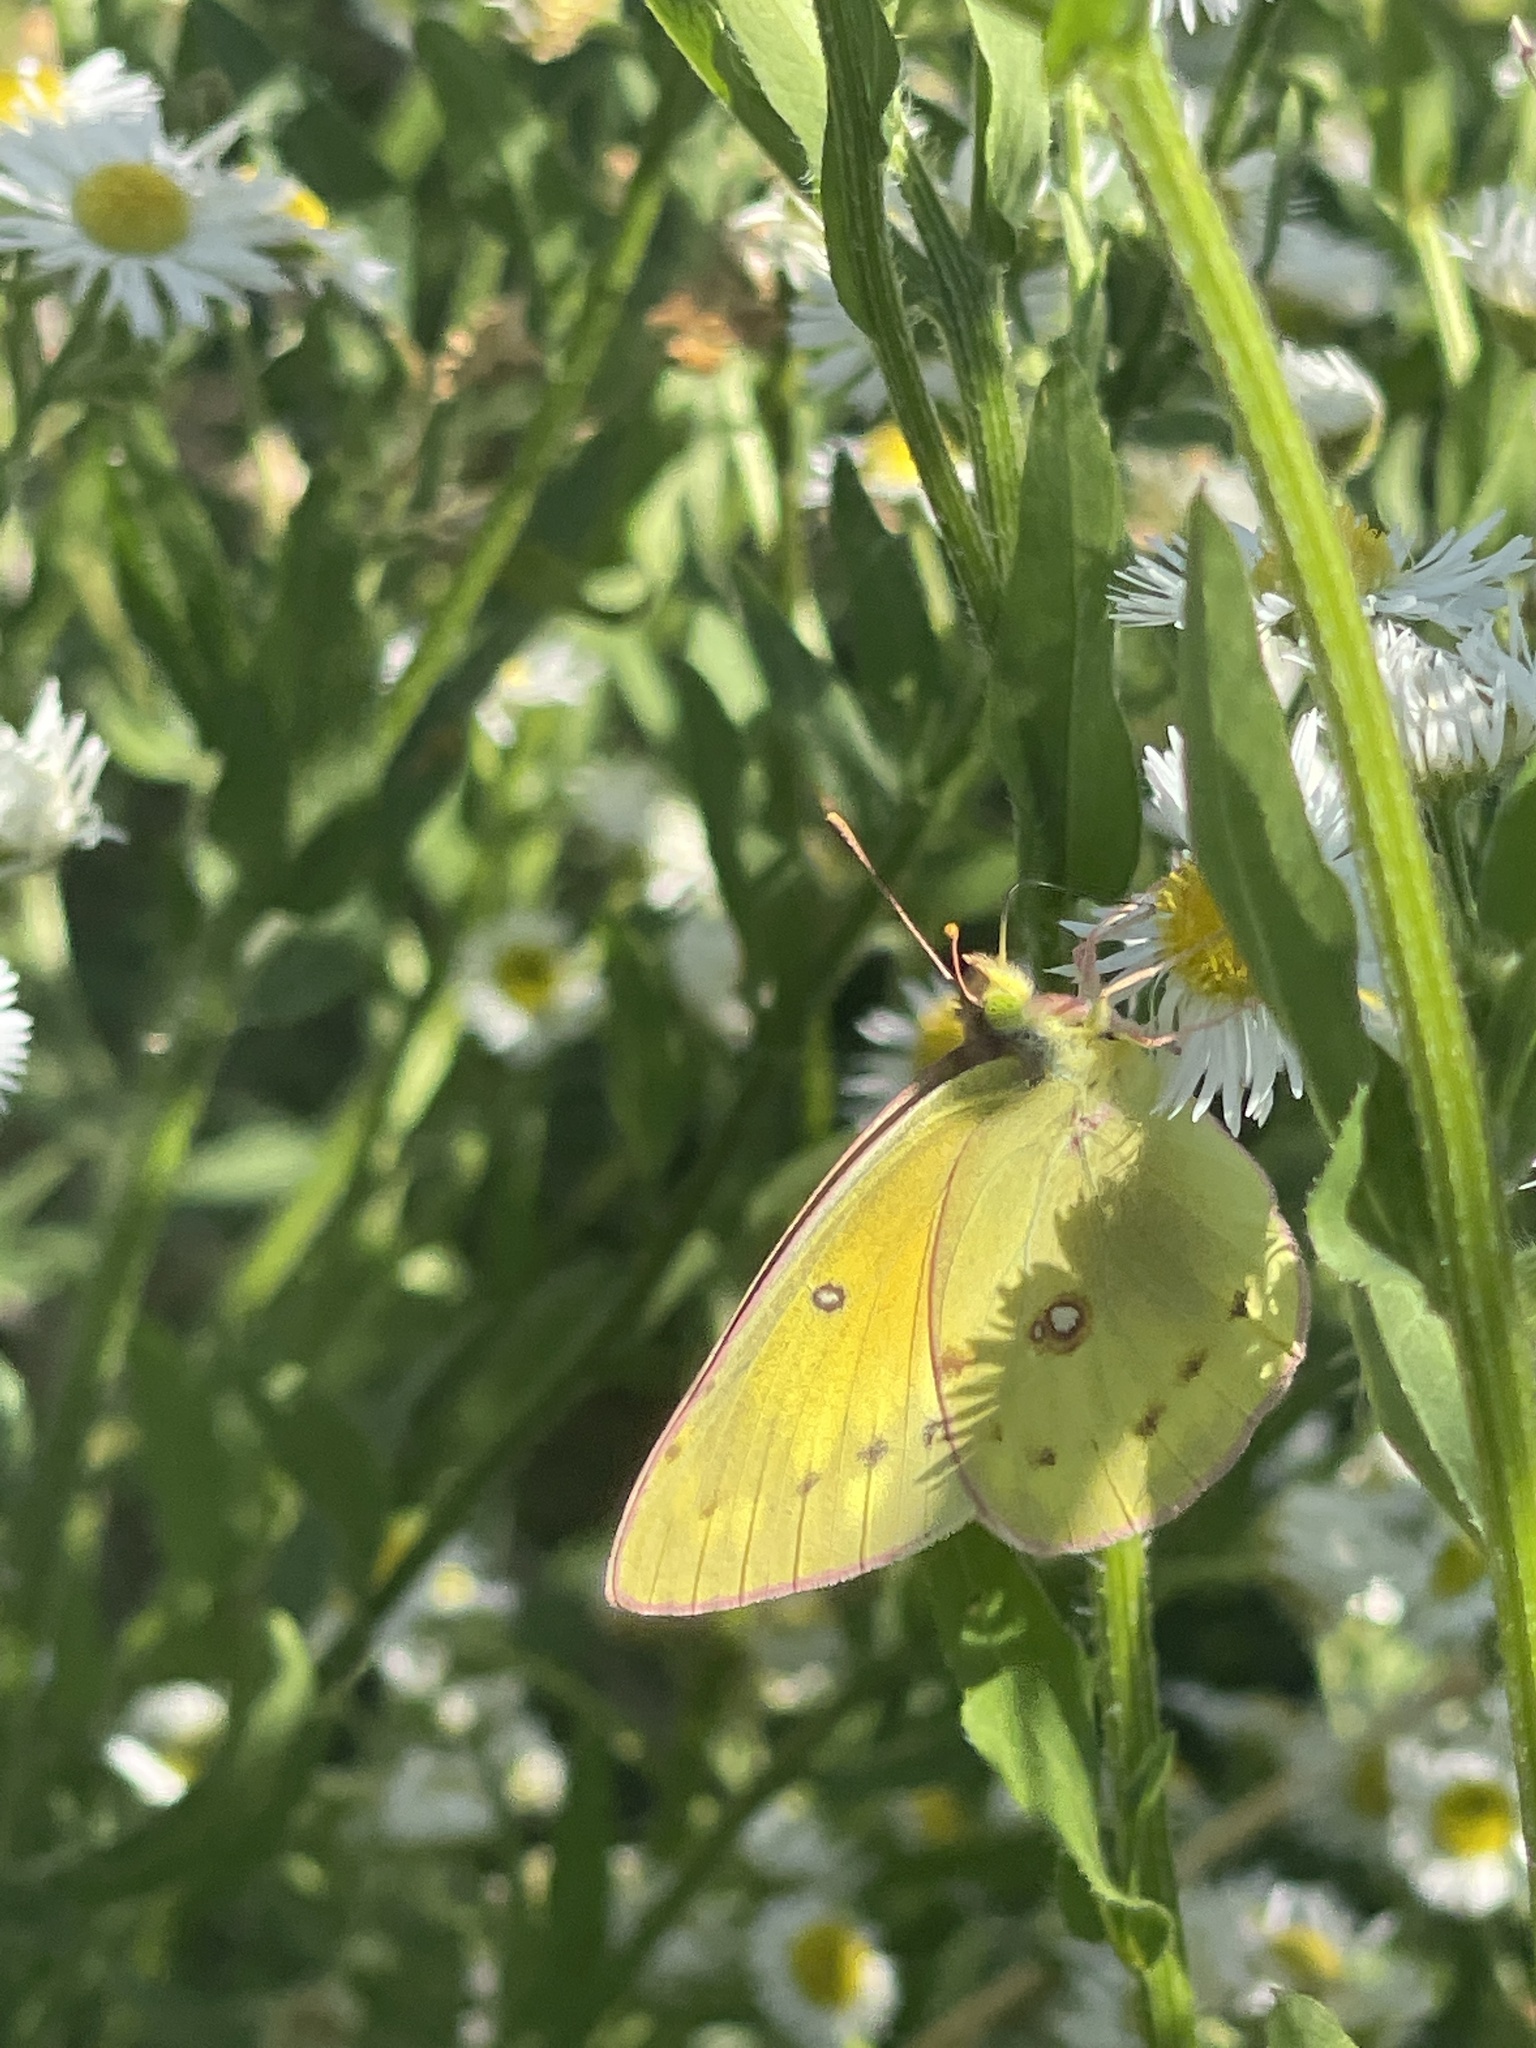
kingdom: Animalia
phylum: Arthropoda
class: Insecta
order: Lepidoptera
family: Pieridae
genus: Colias
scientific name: Colias eurytheme
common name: Alfalfa butterfly
